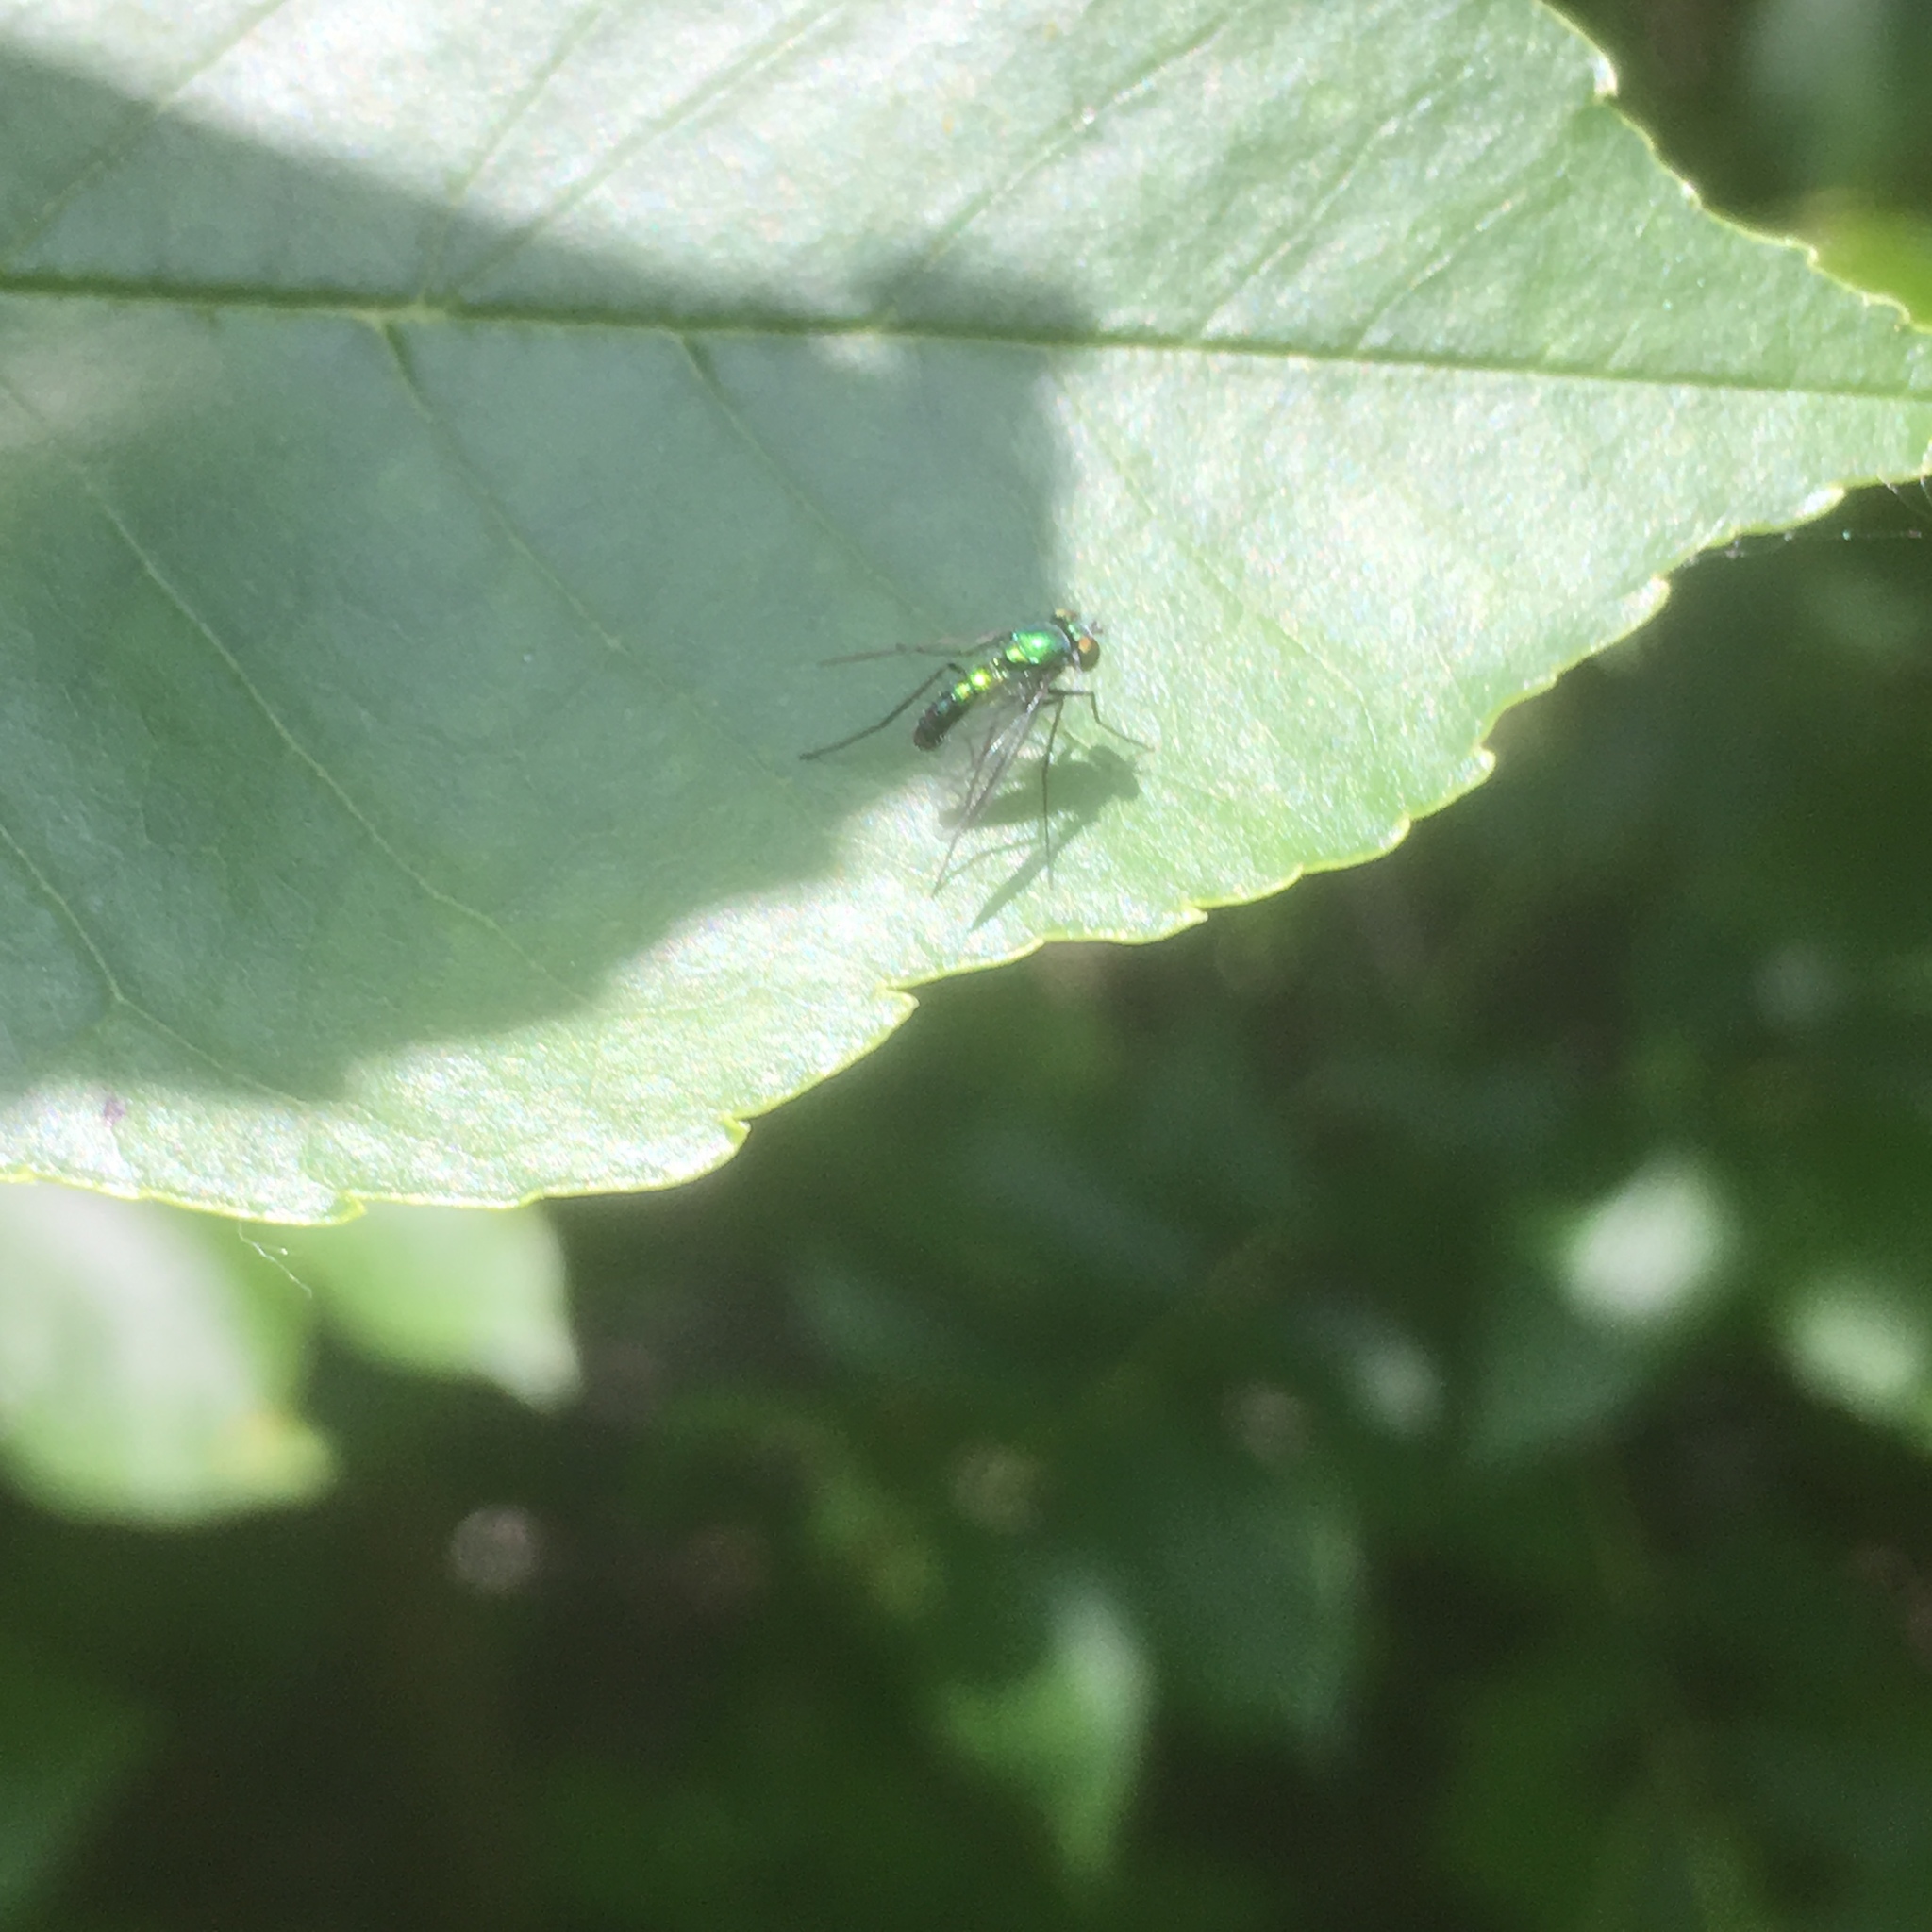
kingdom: Animalia
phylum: Arthropoda
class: Insecta
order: Diptera
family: Dolichopodidae
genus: Condylostylus
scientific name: Condylostylus patibulatus
